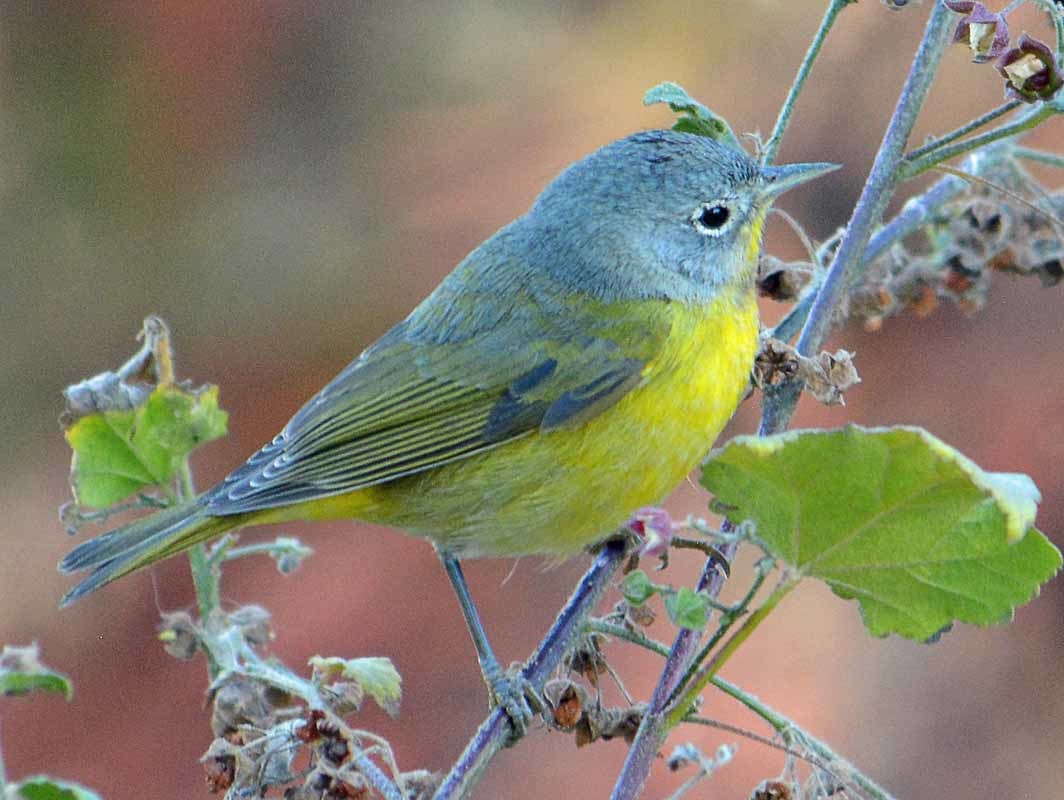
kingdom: Animalia
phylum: Chordata
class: Aves
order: Passeriformes
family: Parulidae
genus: Leiothlypis
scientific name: Leiothlypis ruficapilla
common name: Nashville warbler
